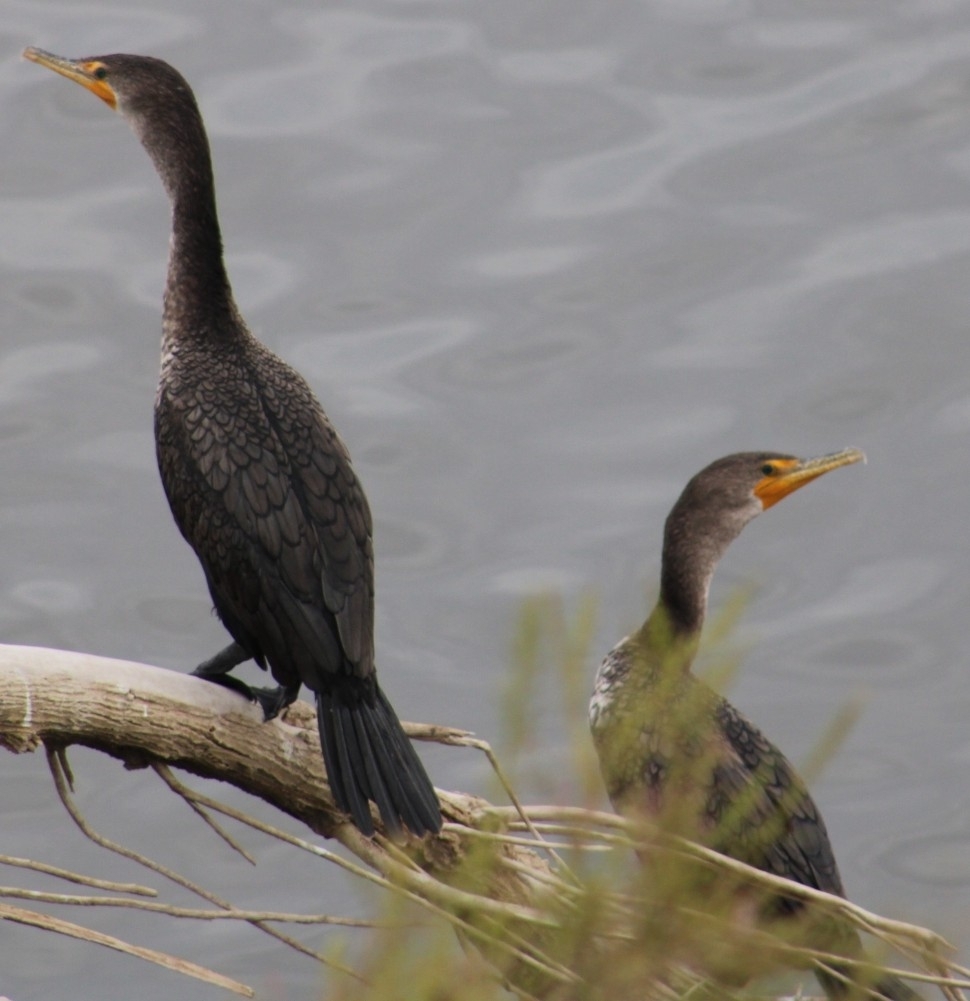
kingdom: Animalia
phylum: Chordata
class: Aves
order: Suliformes
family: Phalacrocoracidae
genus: Phalacrocorax
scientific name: Phalacrocorax auritus
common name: Double-crested cormorant
